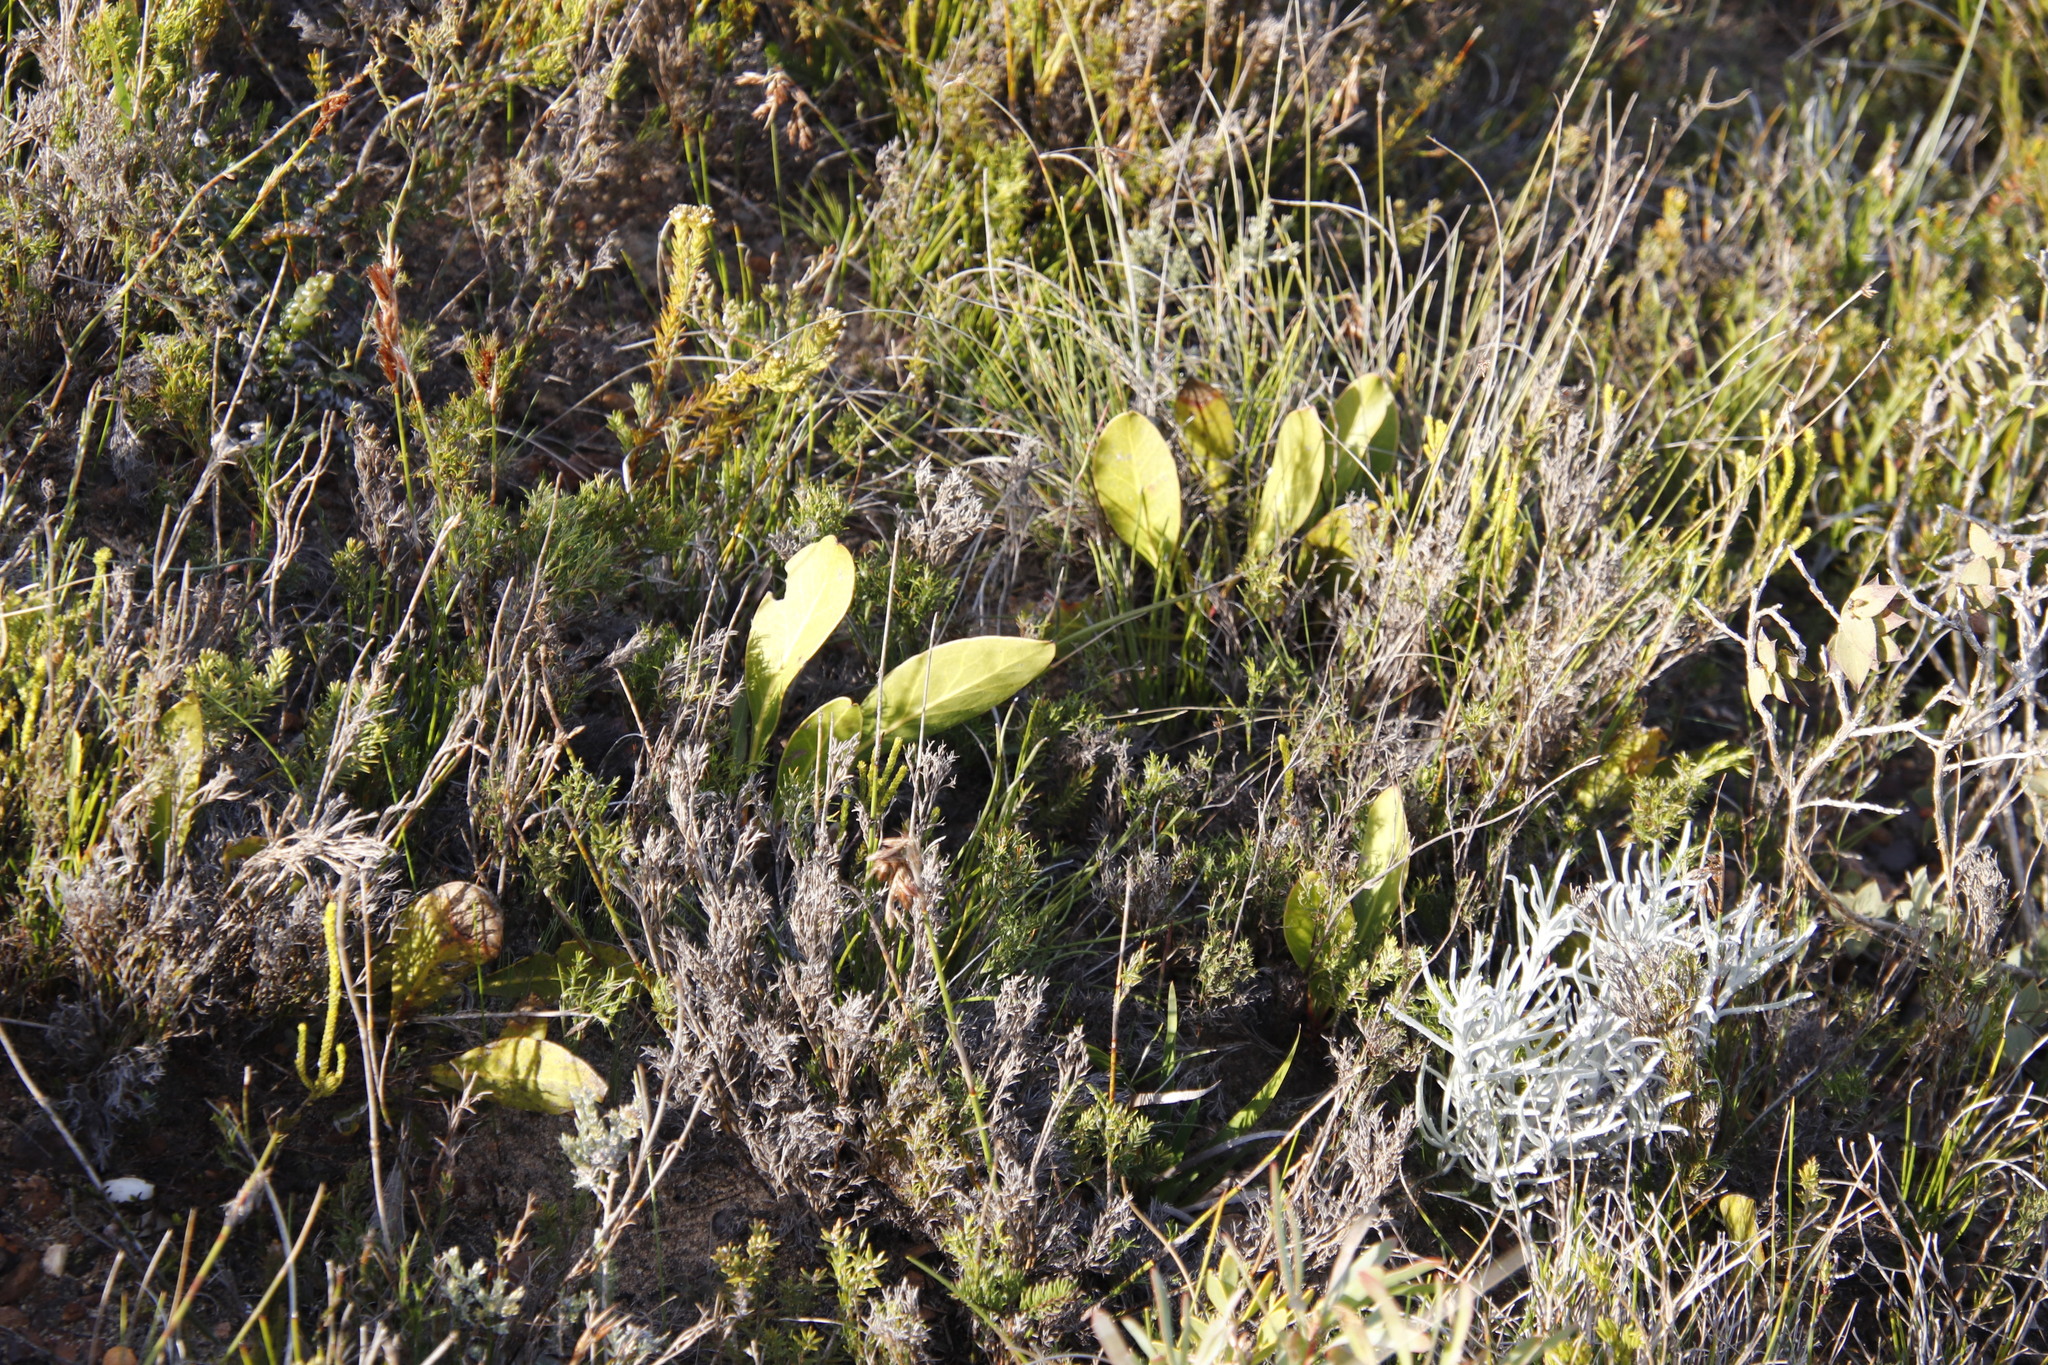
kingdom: Plantae
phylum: Tracheophyta
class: Magnoliopsida
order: Proteales
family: Proteaceae
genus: Protea
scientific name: Protea acaulos
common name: Common ground sugarbush
